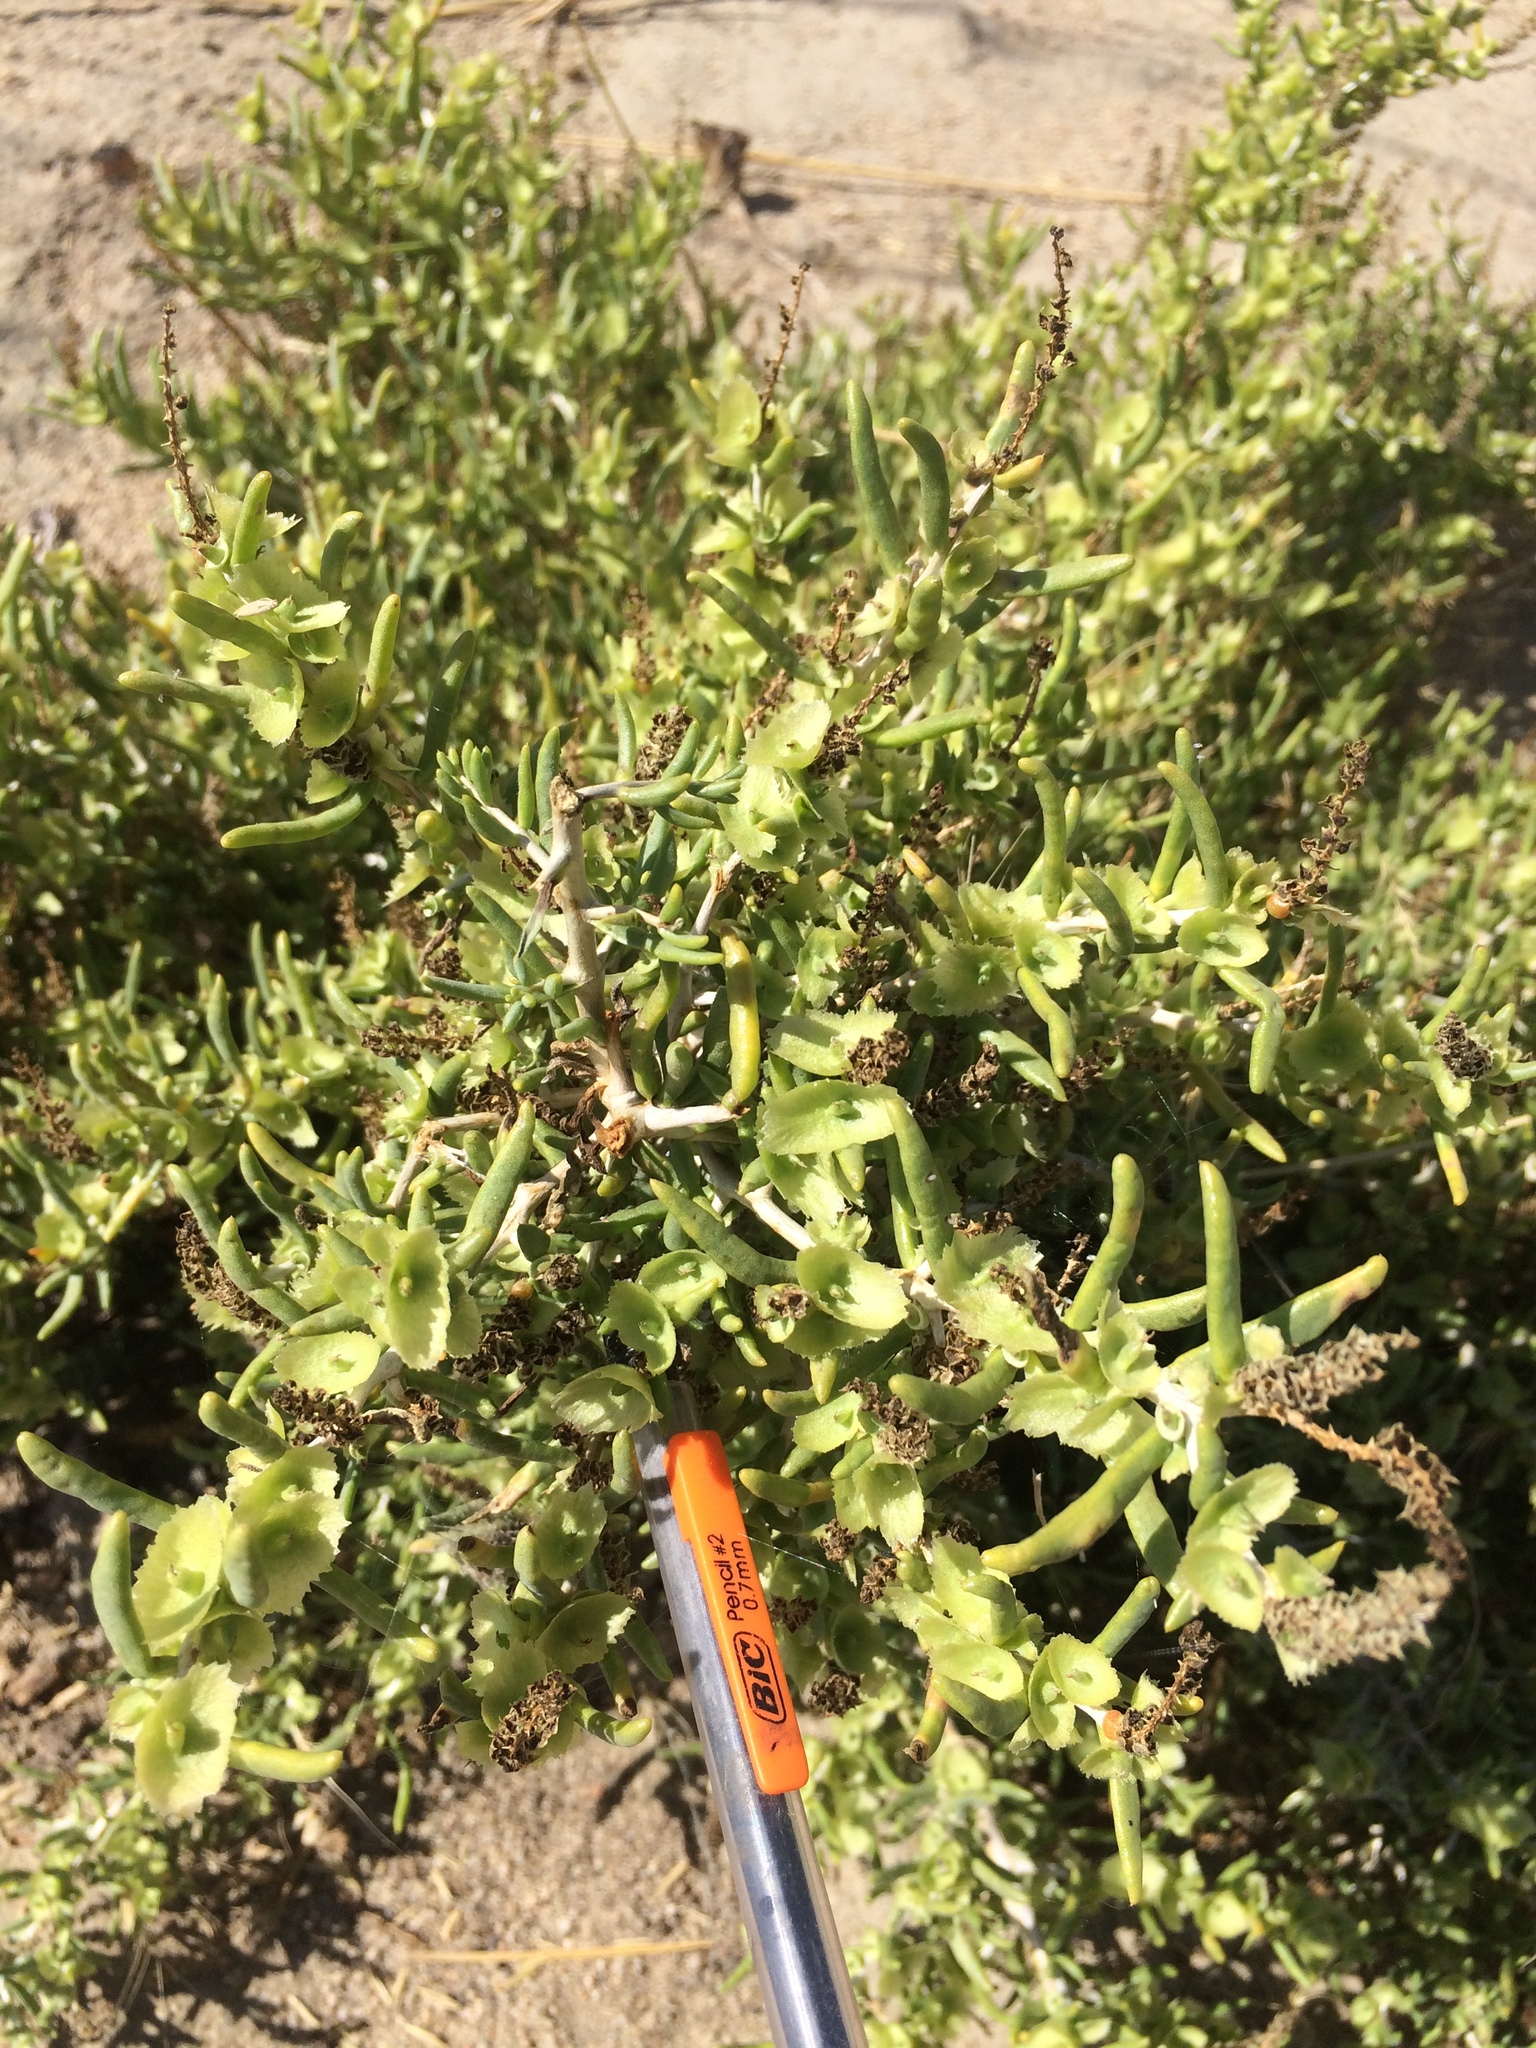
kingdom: Plantae
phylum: Tracheophyta
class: Magnoliopsida
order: Caryophyllales
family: Sarcobataceae
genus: Sarcobatus
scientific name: Sarcobatus vermiculatus
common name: Greasewood
